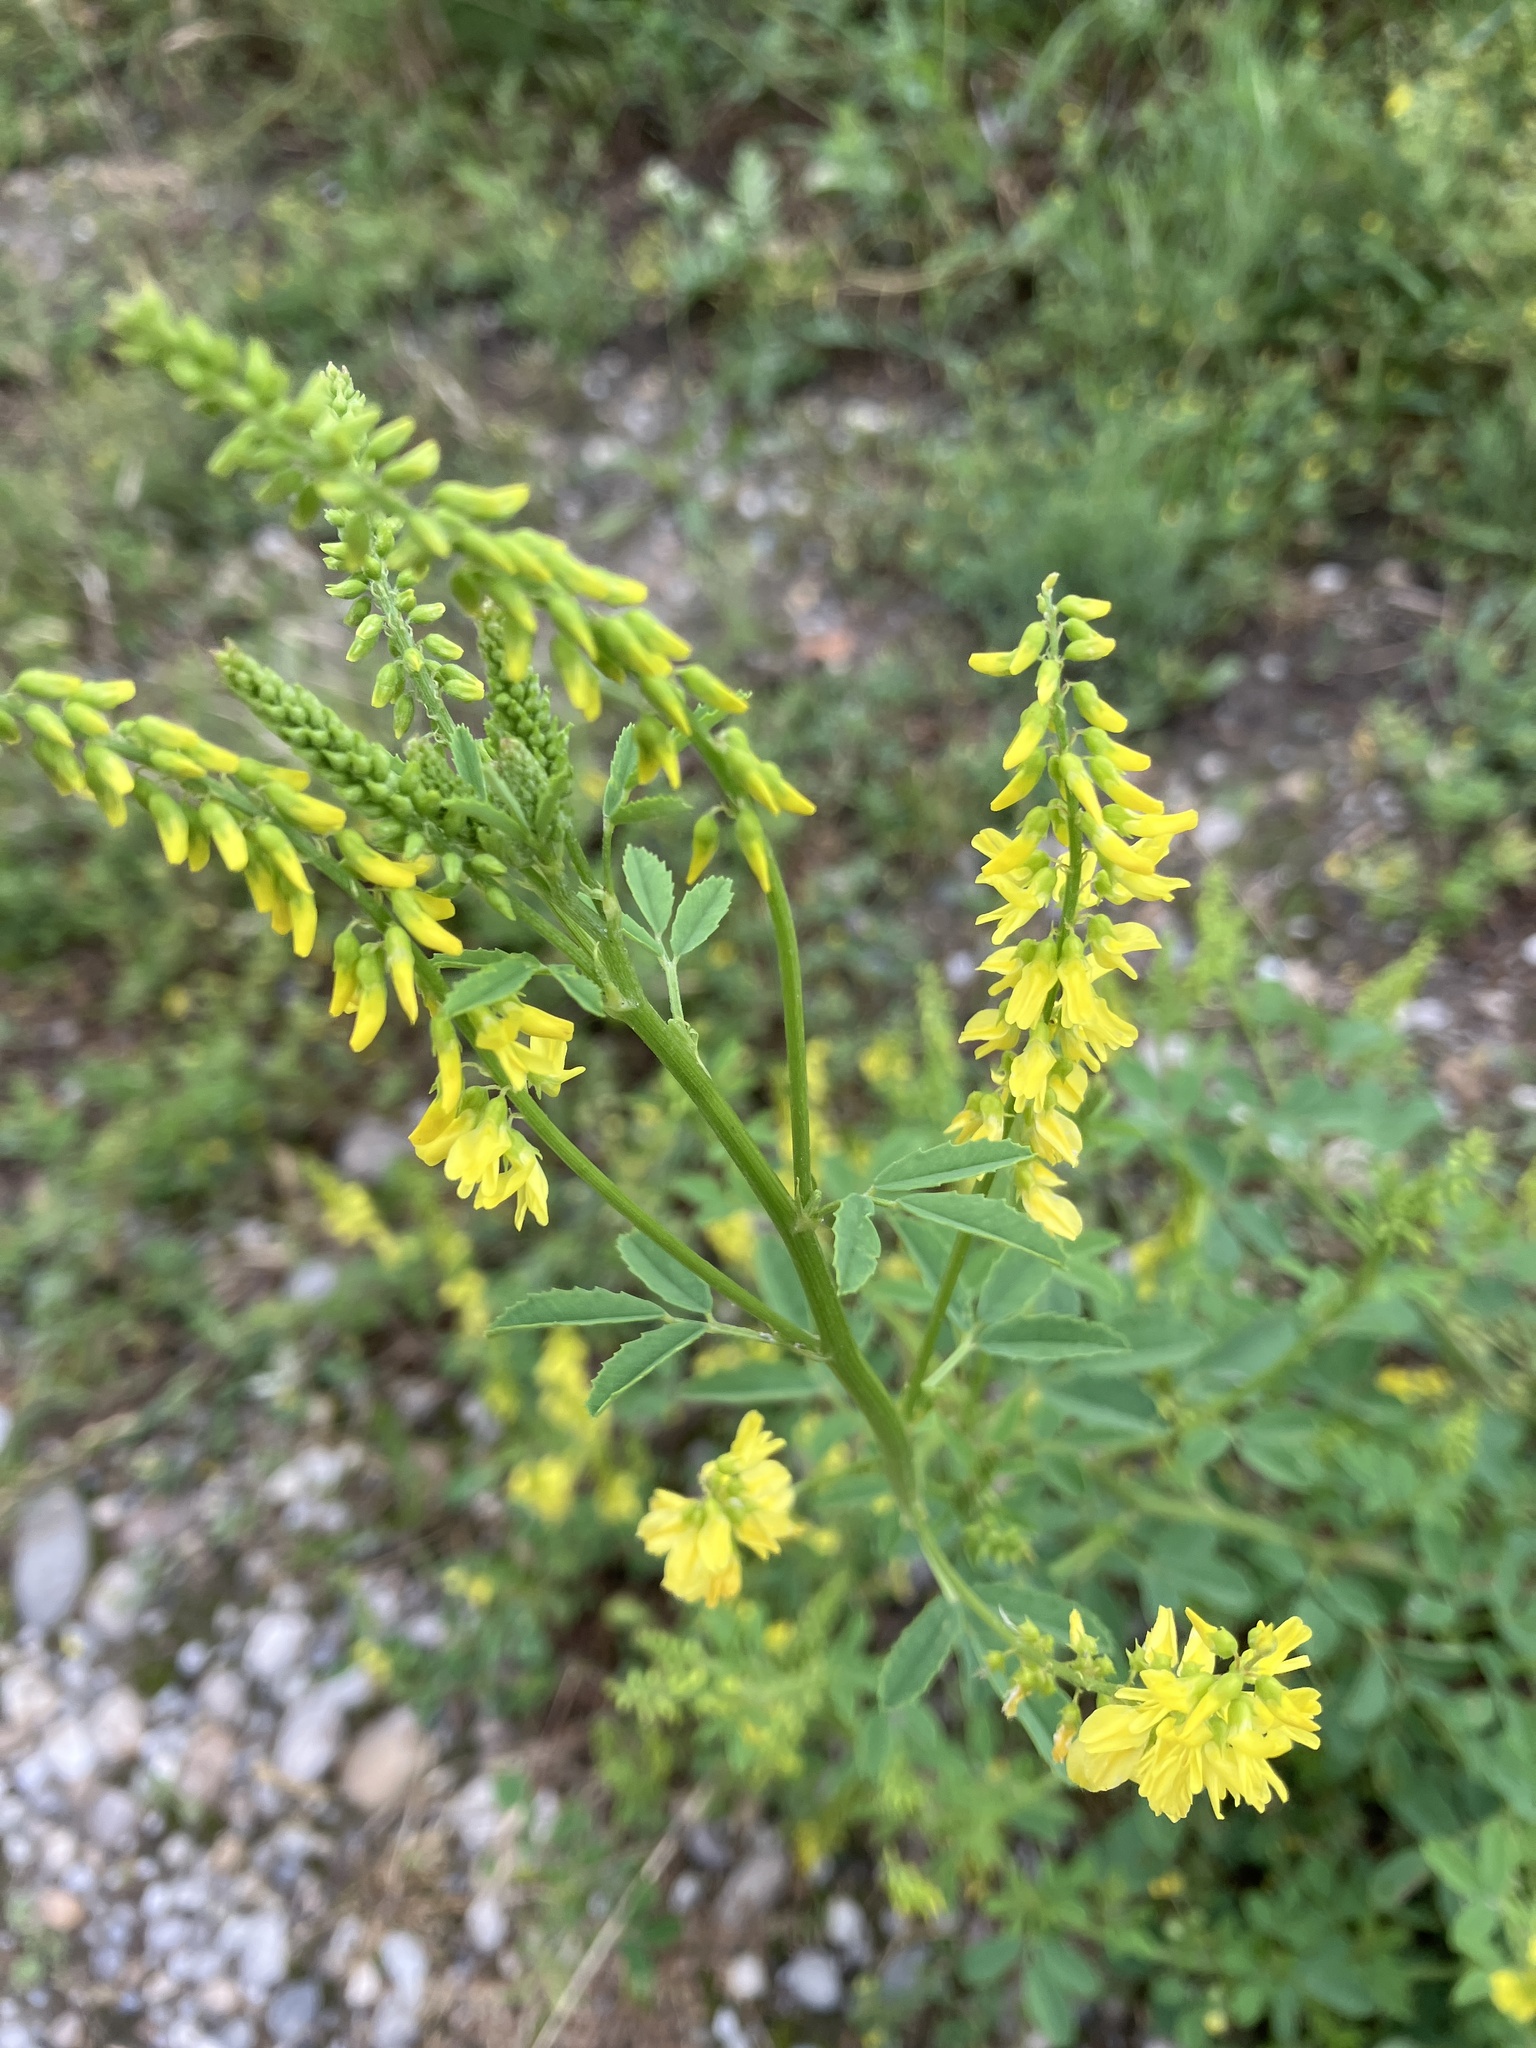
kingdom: Plantae
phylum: Tracheophyta
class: Magnoliopsida
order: Fabales
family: Fabaceae
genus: Melilotus
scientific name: Melilotus officinalis
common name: Sweetclover
